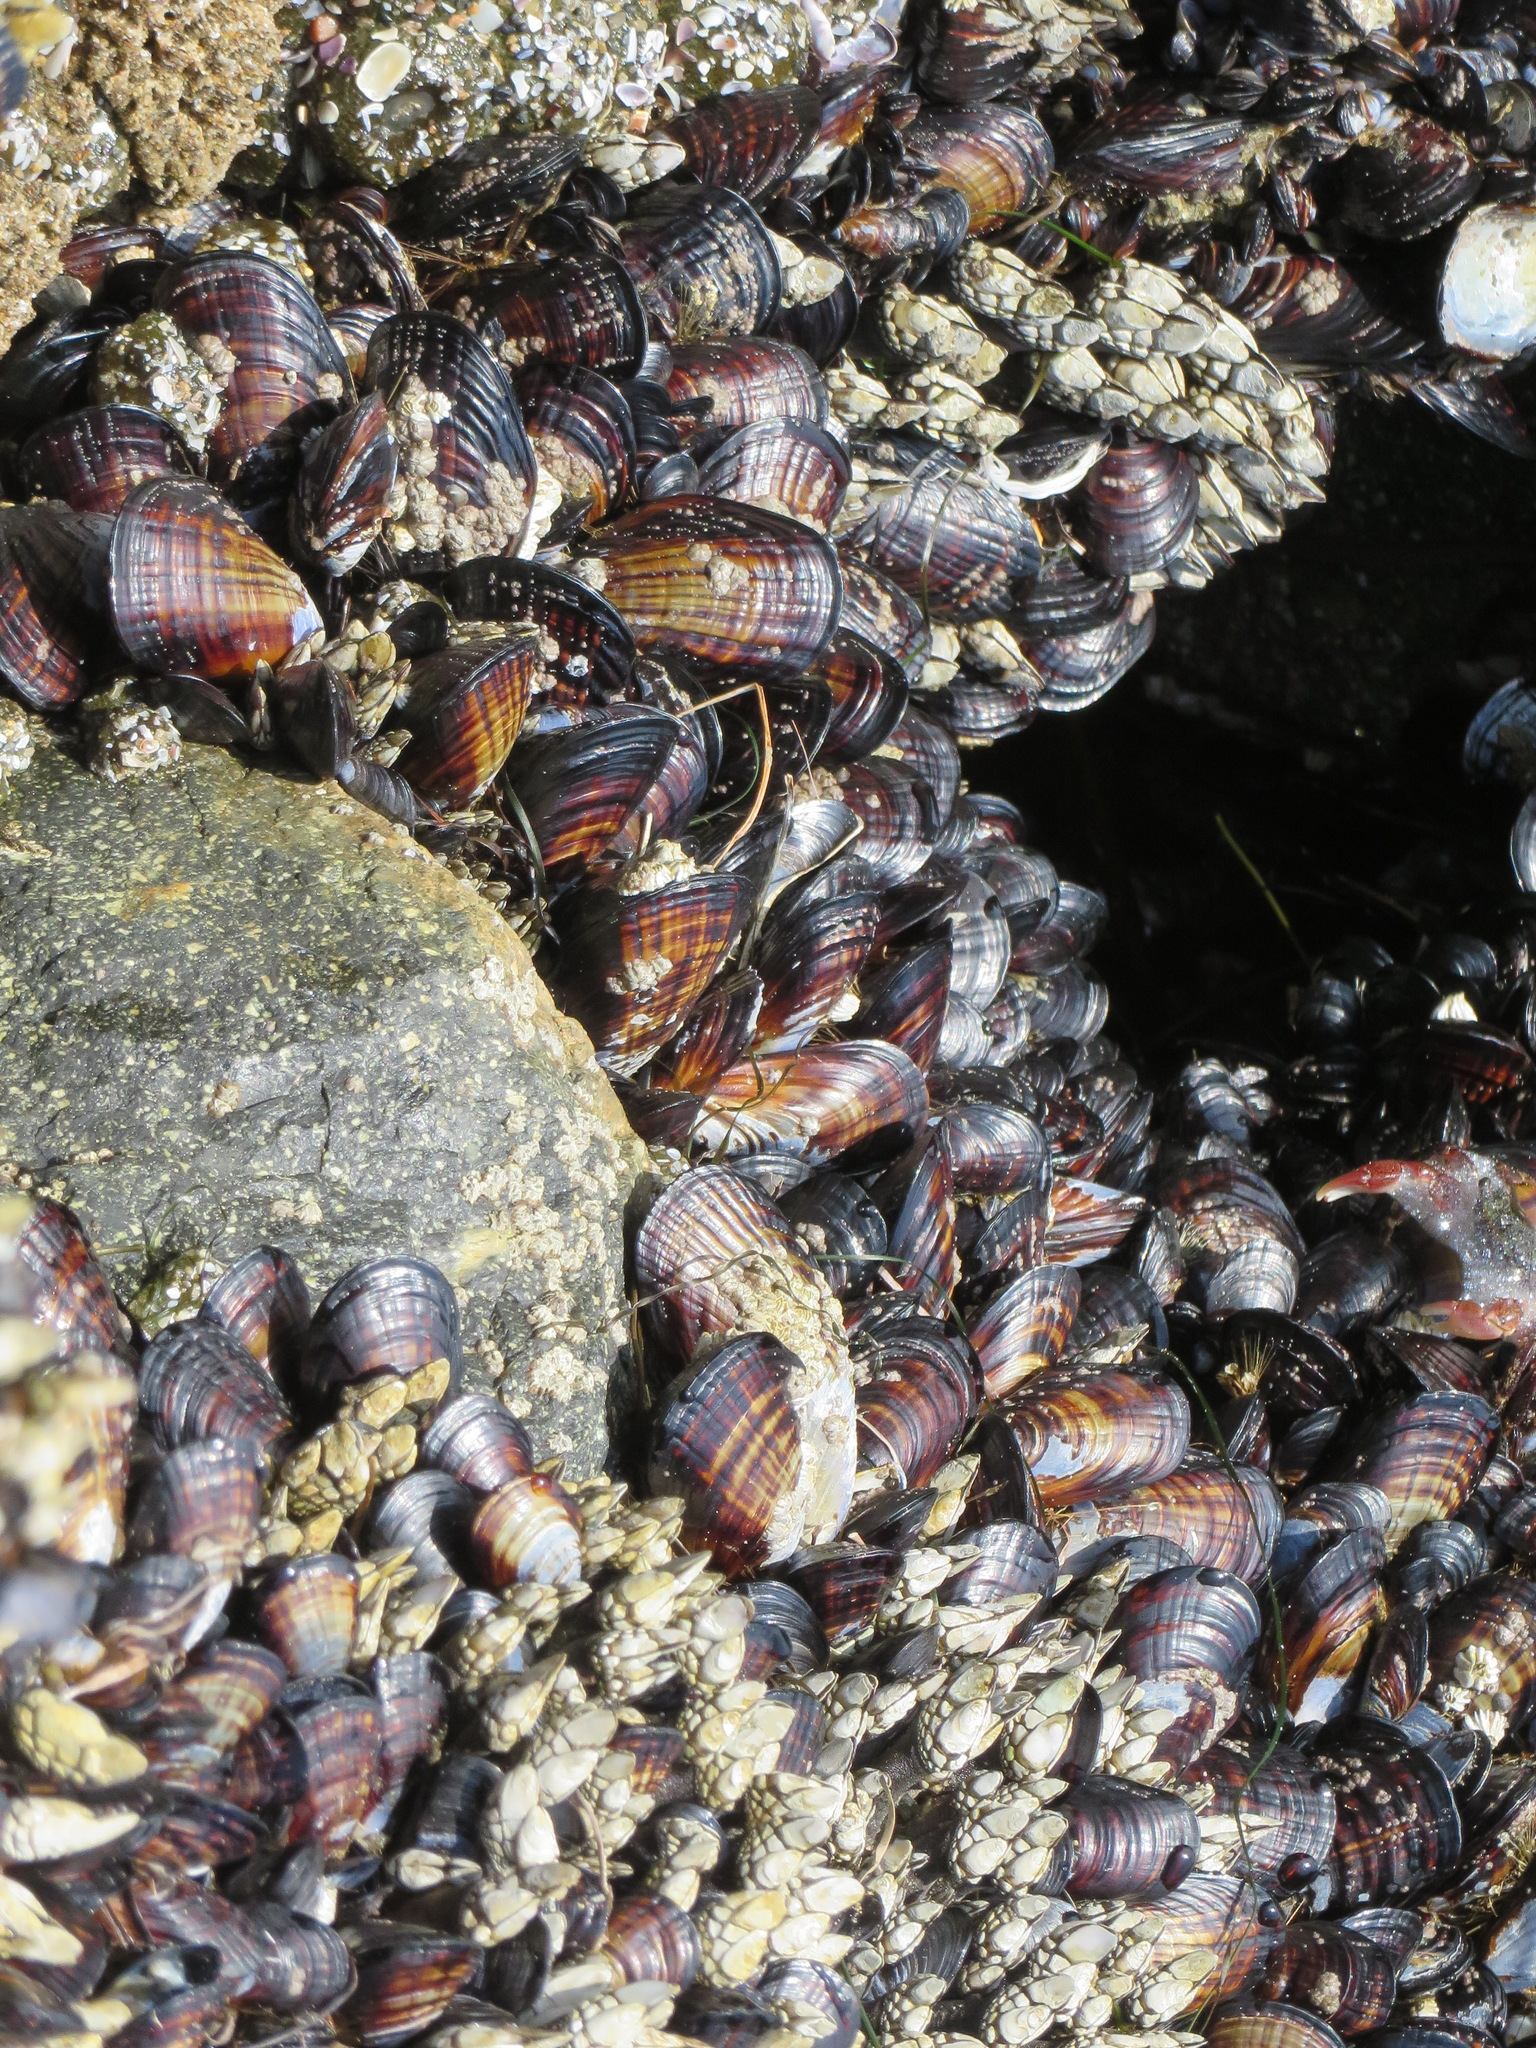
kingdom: Animalia
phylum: Mollusca
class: Bivalvia
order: Mytilida
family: Mytilidae
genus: Mytilus
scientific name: Mytilus californianus
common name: California mussel
